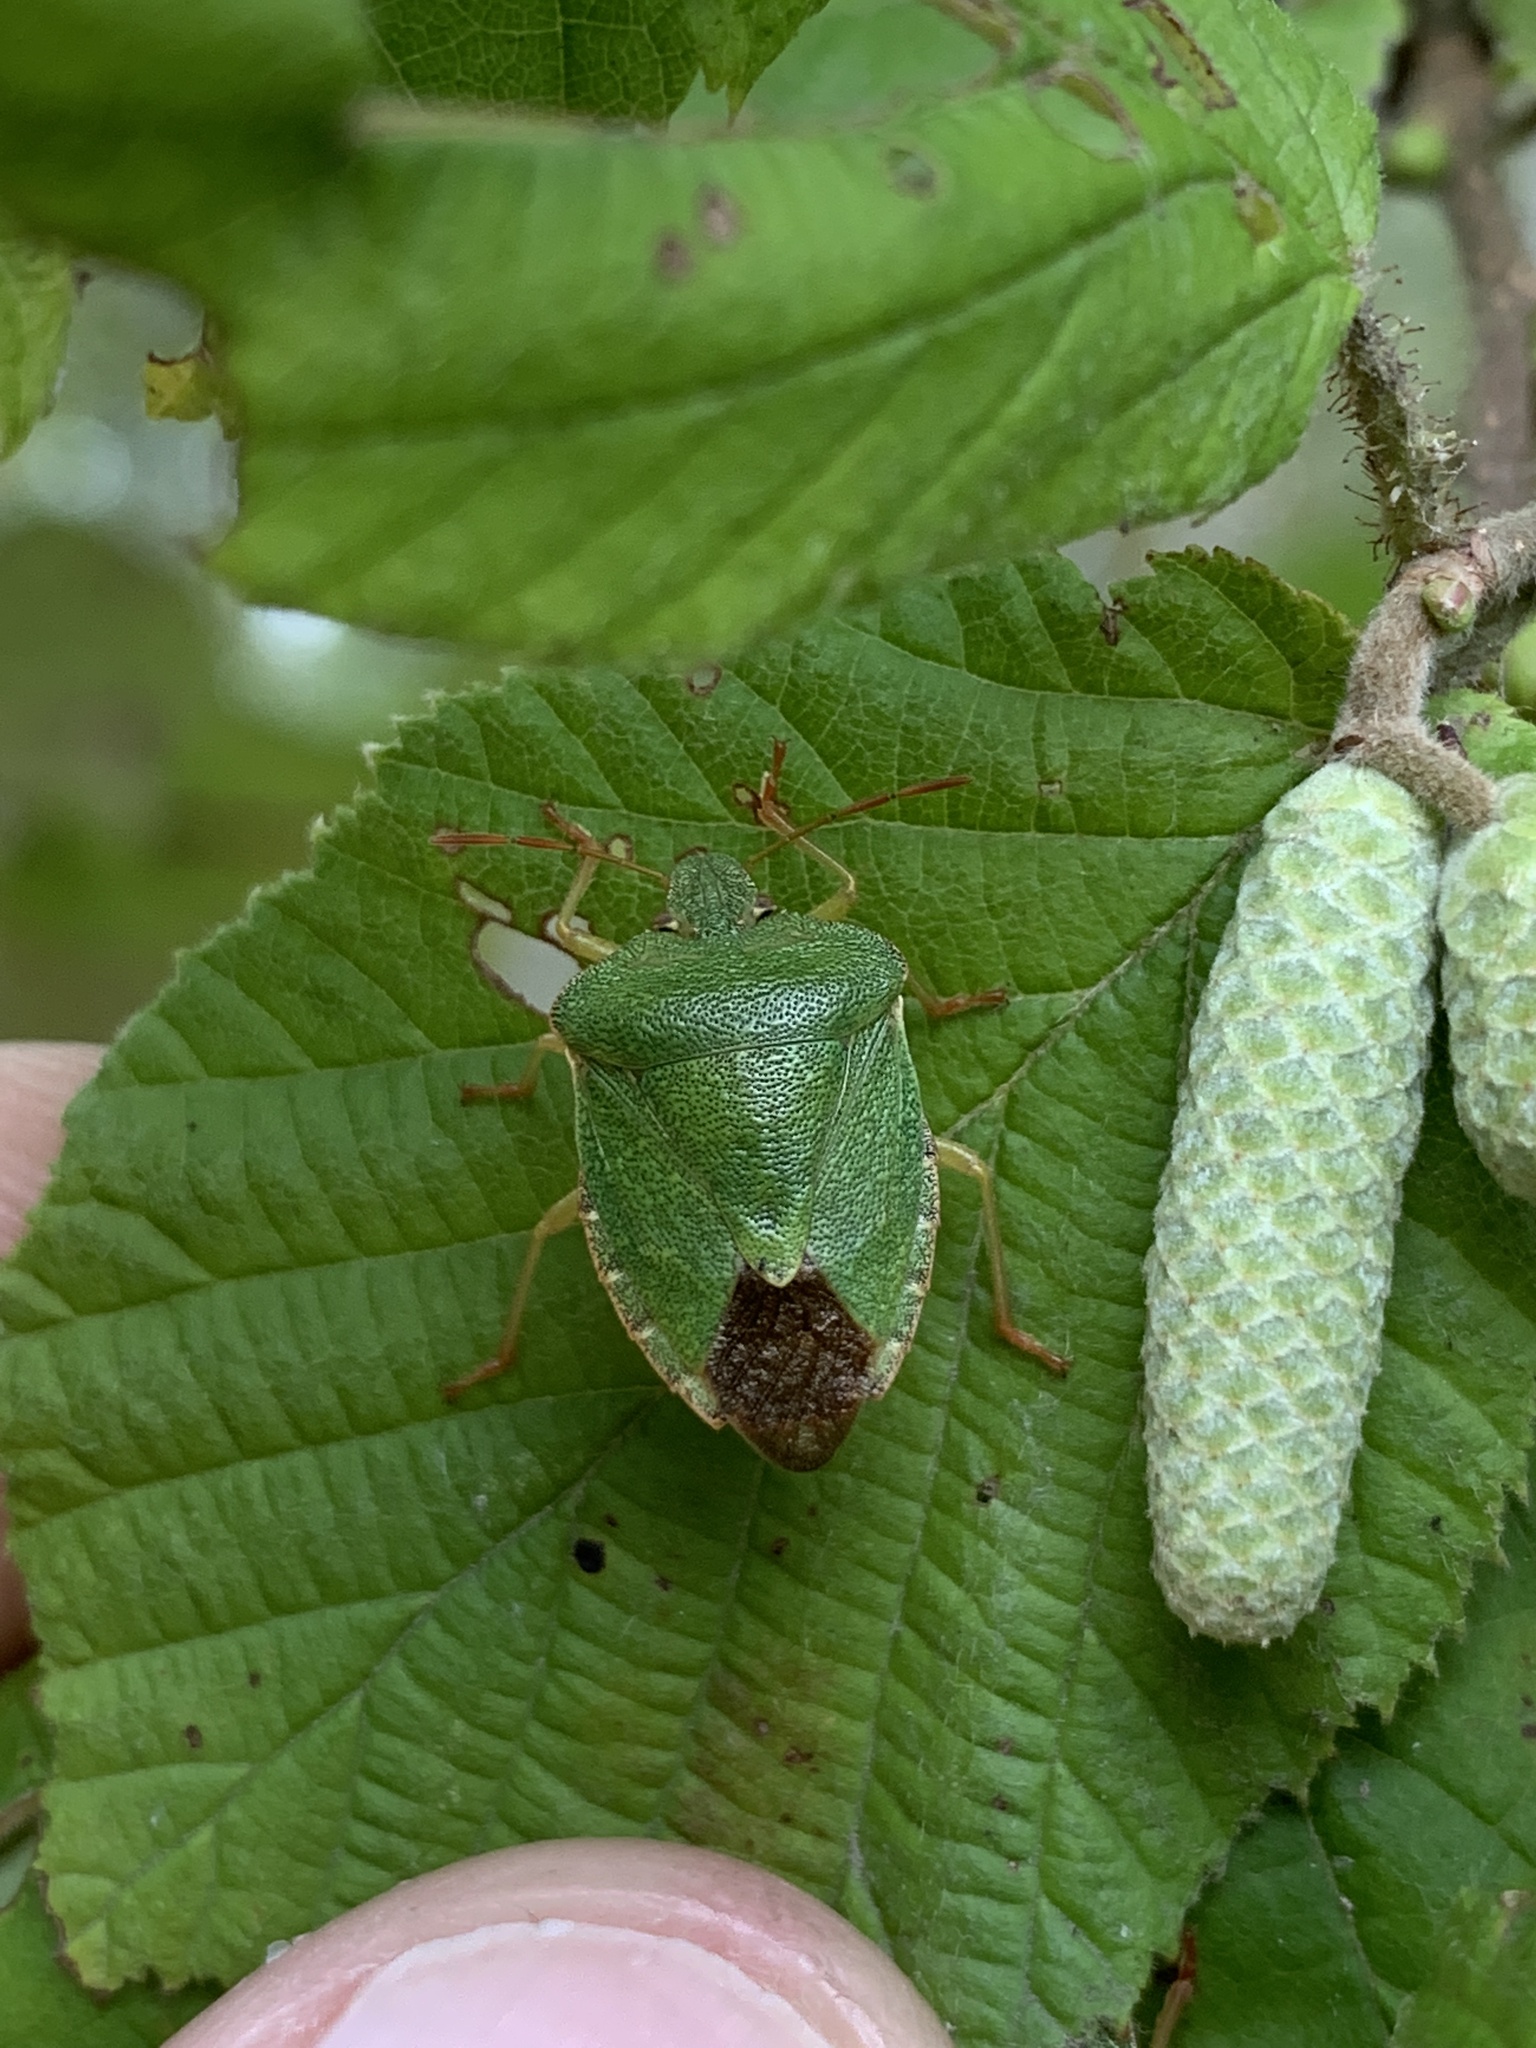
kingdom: Animalia
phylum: Arthropoda
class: Insecta
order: Hemiptera
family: Pentatomidae
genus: Palomena
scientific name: Palomena prasina
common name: Green shieldbug
